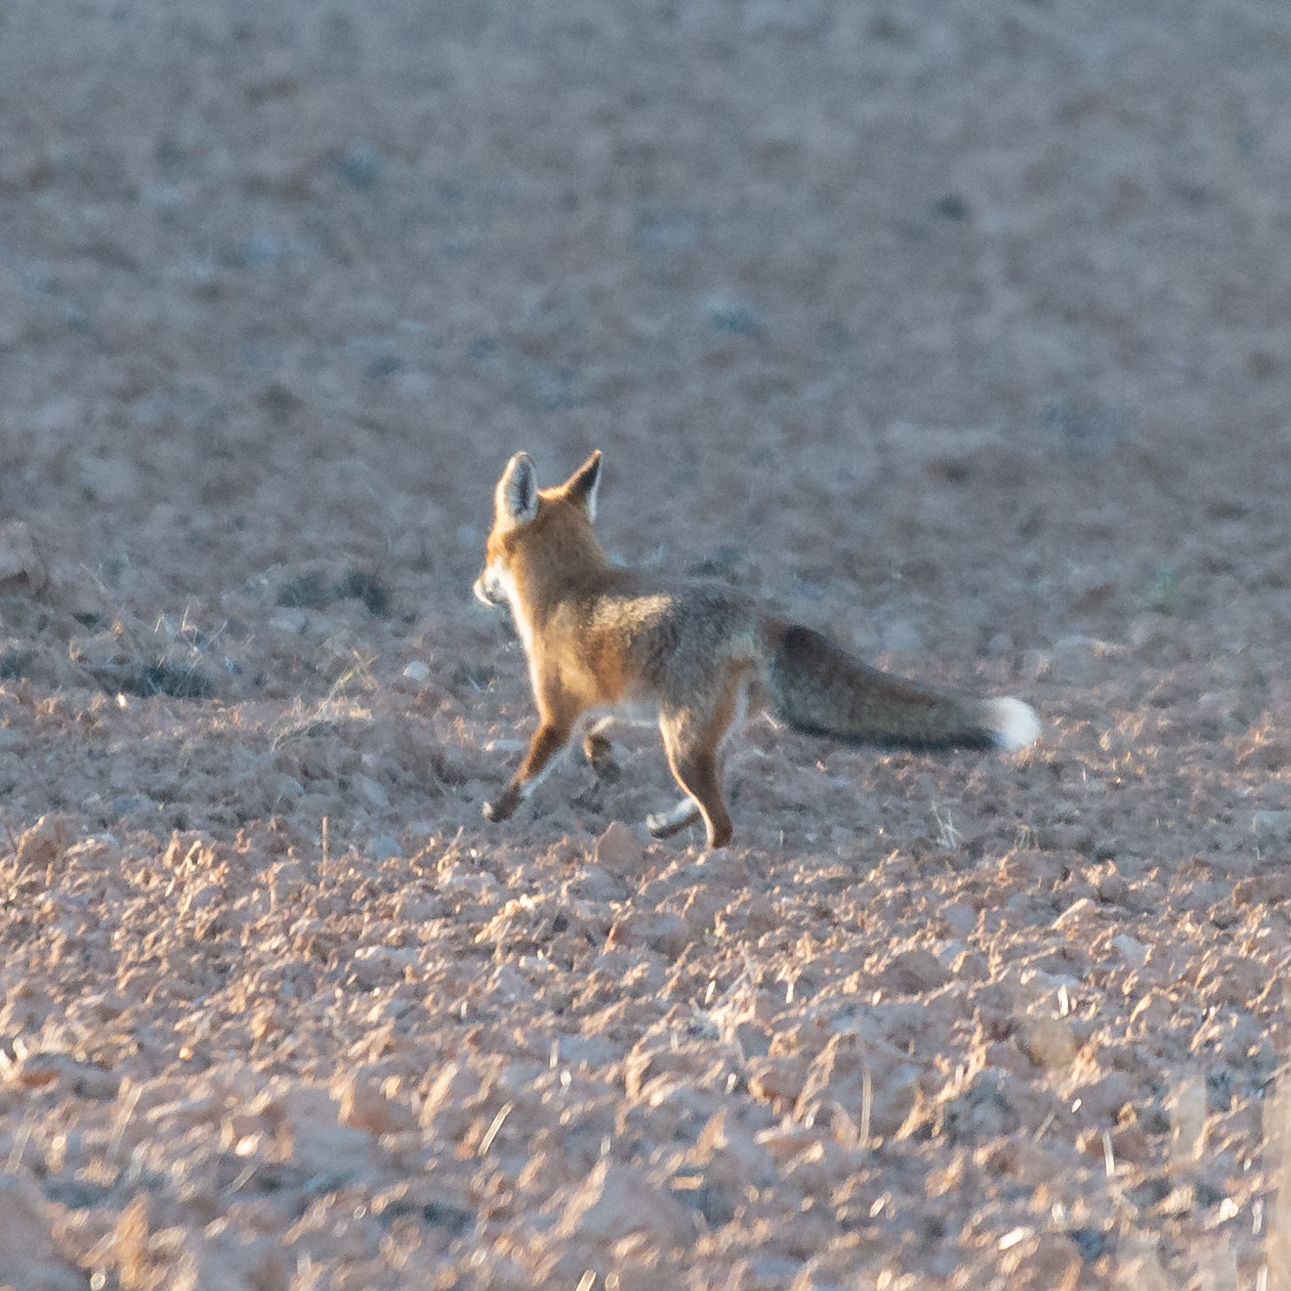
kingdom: Animalia
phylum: Chordata
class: Mammalia
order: Carnivora
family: Canidae
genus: Vulpes
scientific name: Vulpes vulpes
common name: Red fox
